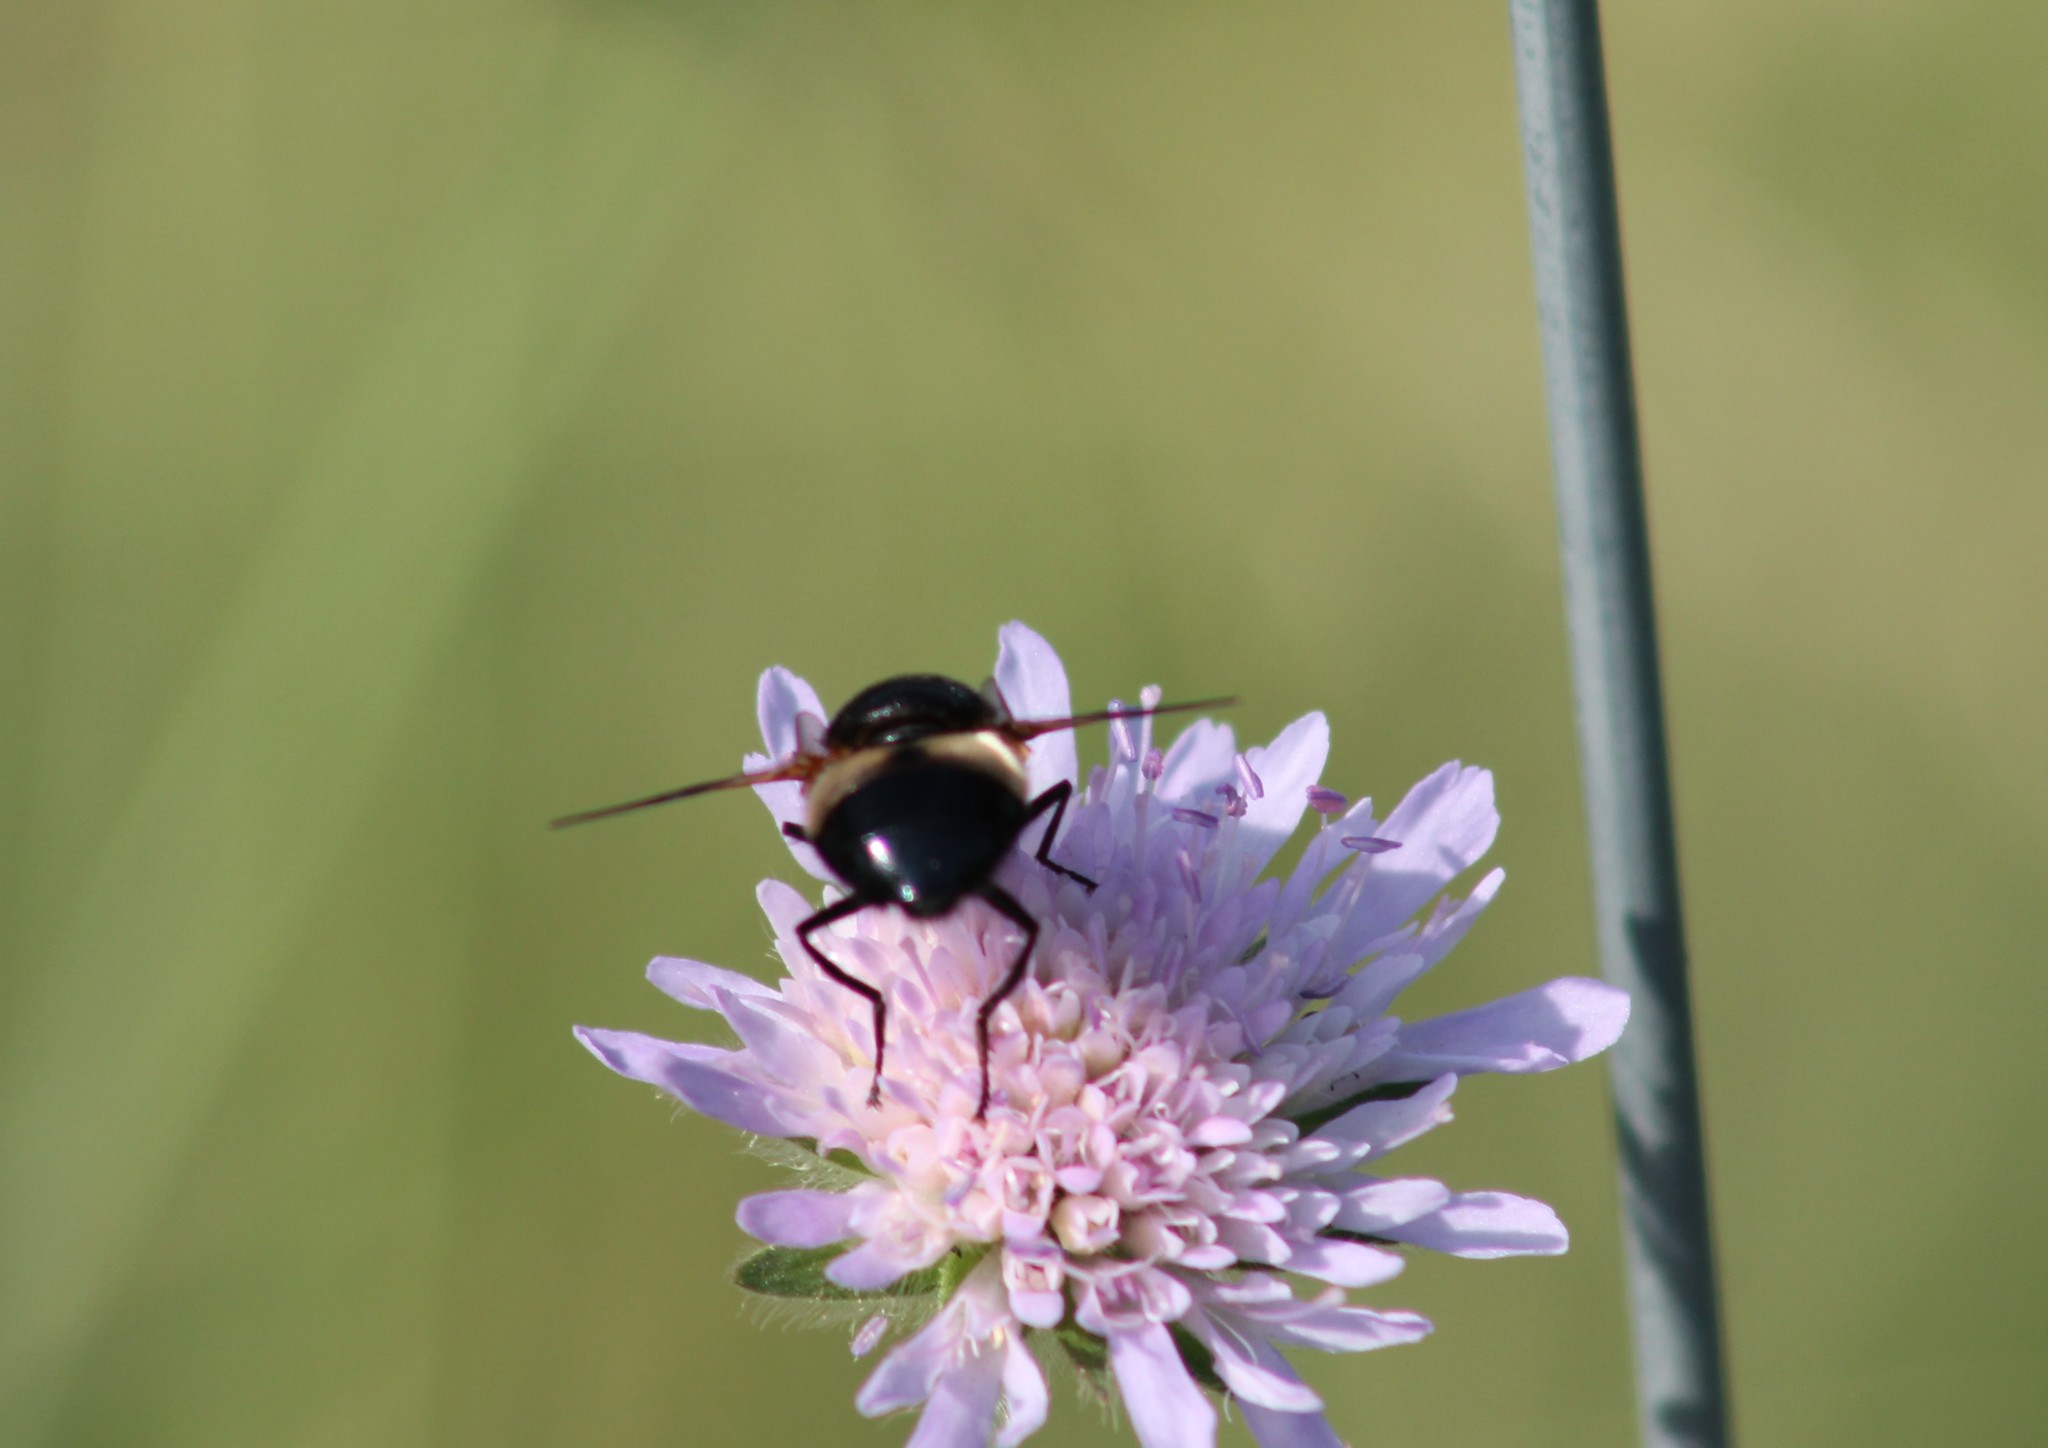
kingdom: Animalia
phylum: Arthropoda
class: Insecta
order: Diptera
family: Syrphidae
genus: Volucella
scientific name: Volucella pellucens
